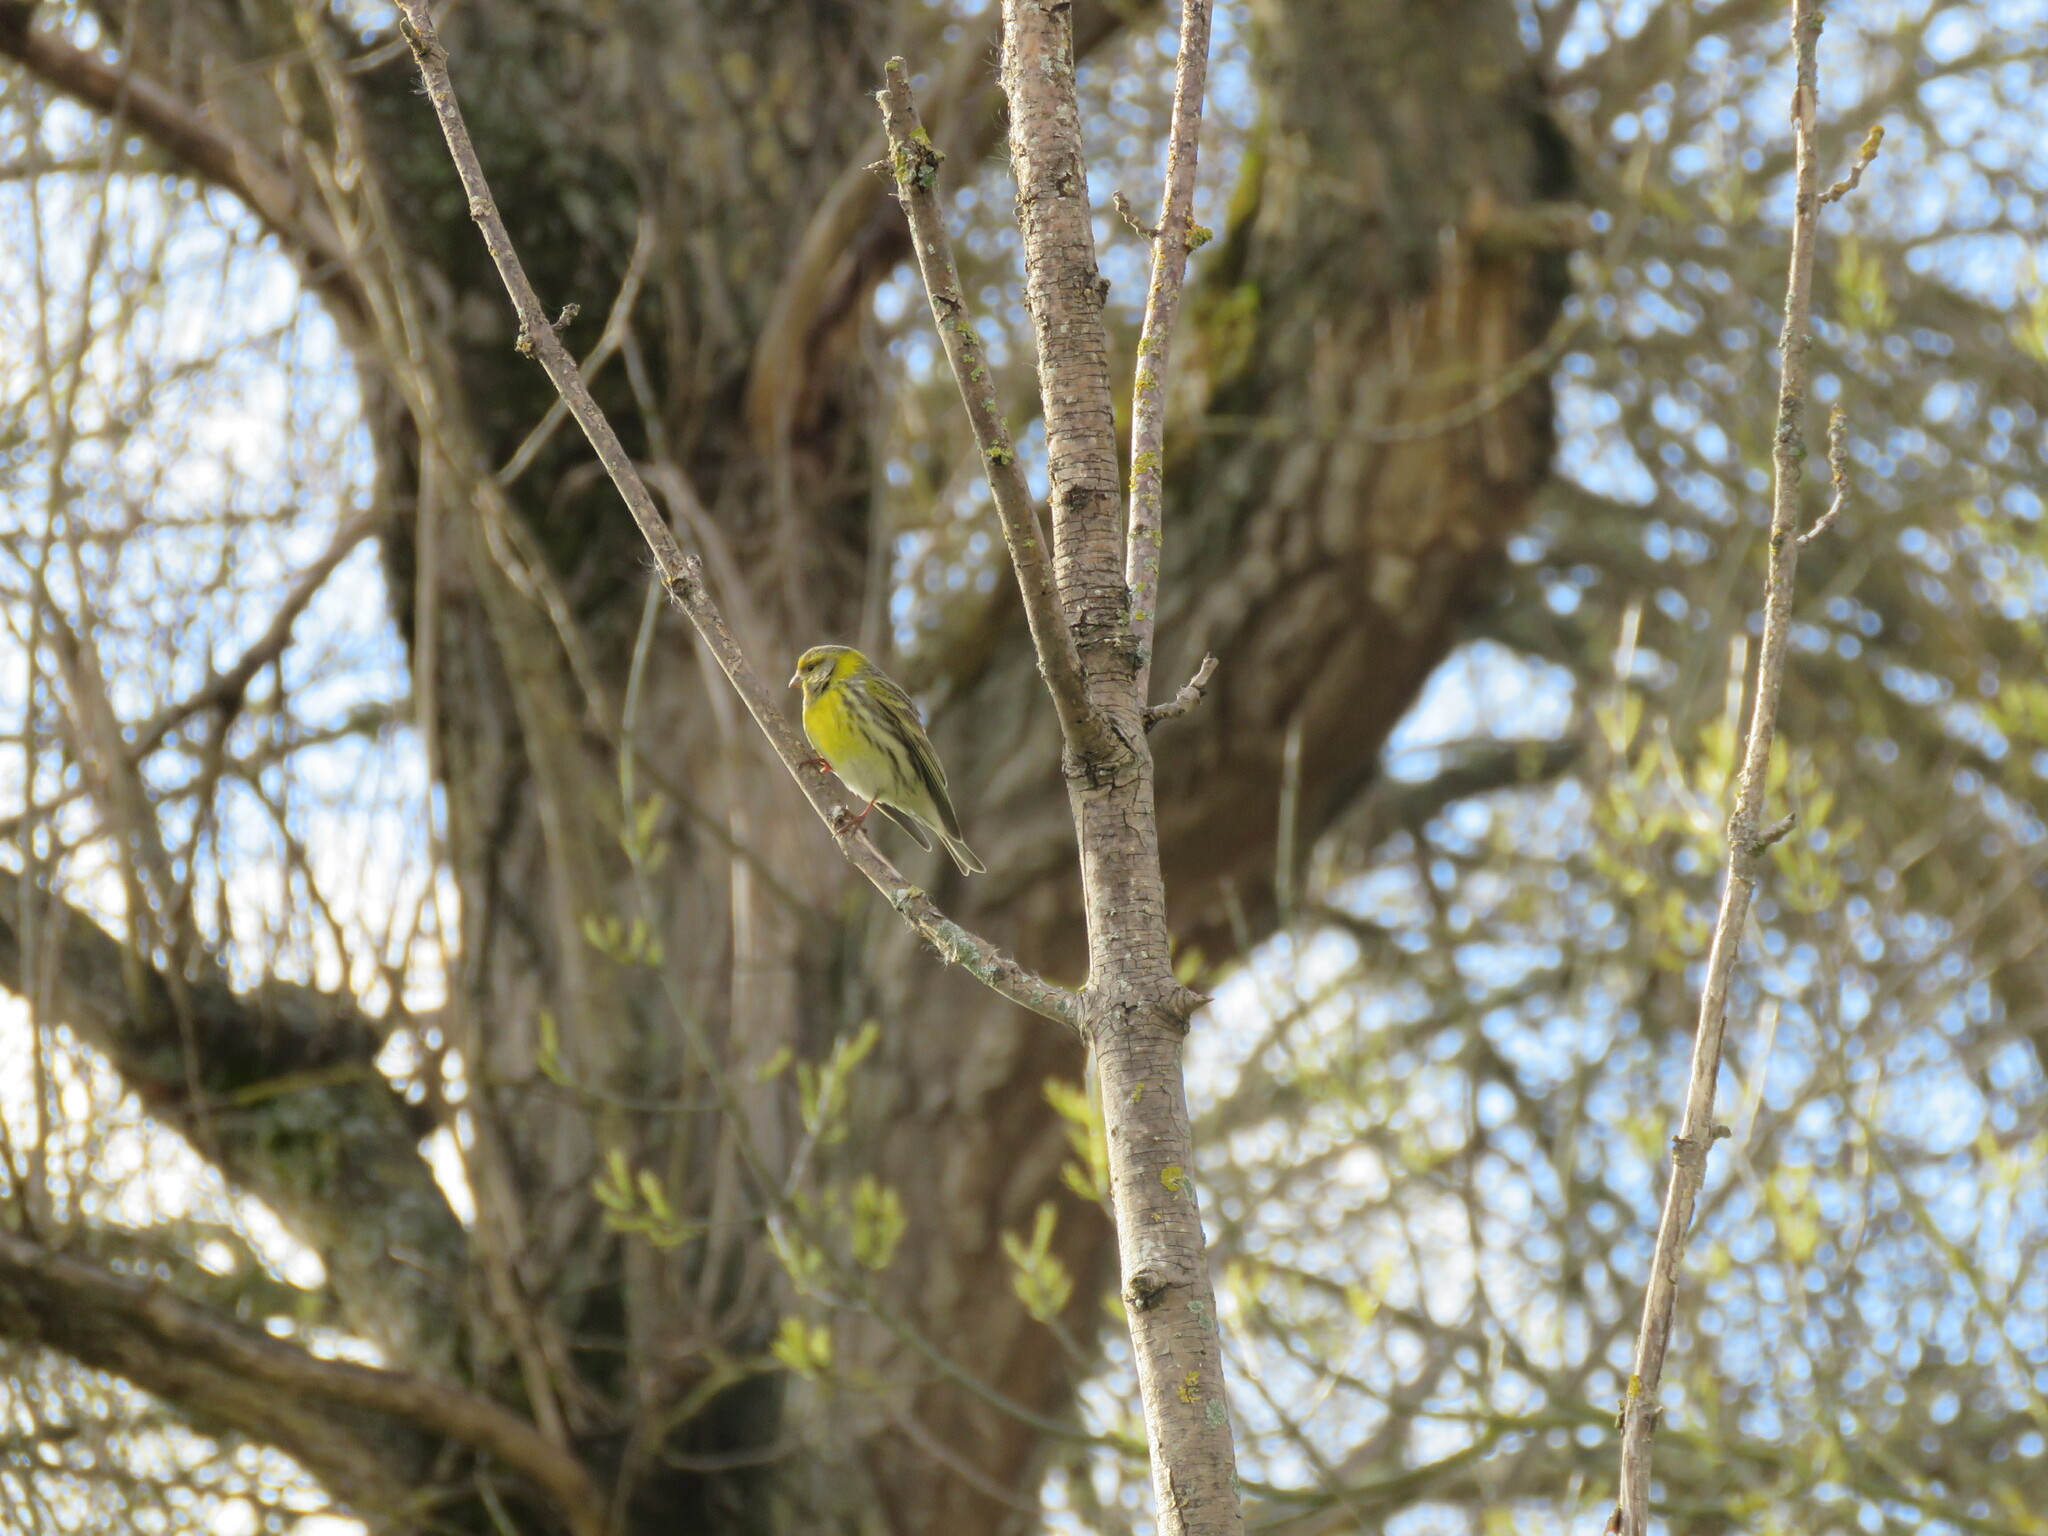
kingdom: Animalia
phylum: Chordata
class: Aves
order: Passeriformes
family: Fringillidae
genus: Serinus
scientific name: Serinus serinus
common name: European serin
